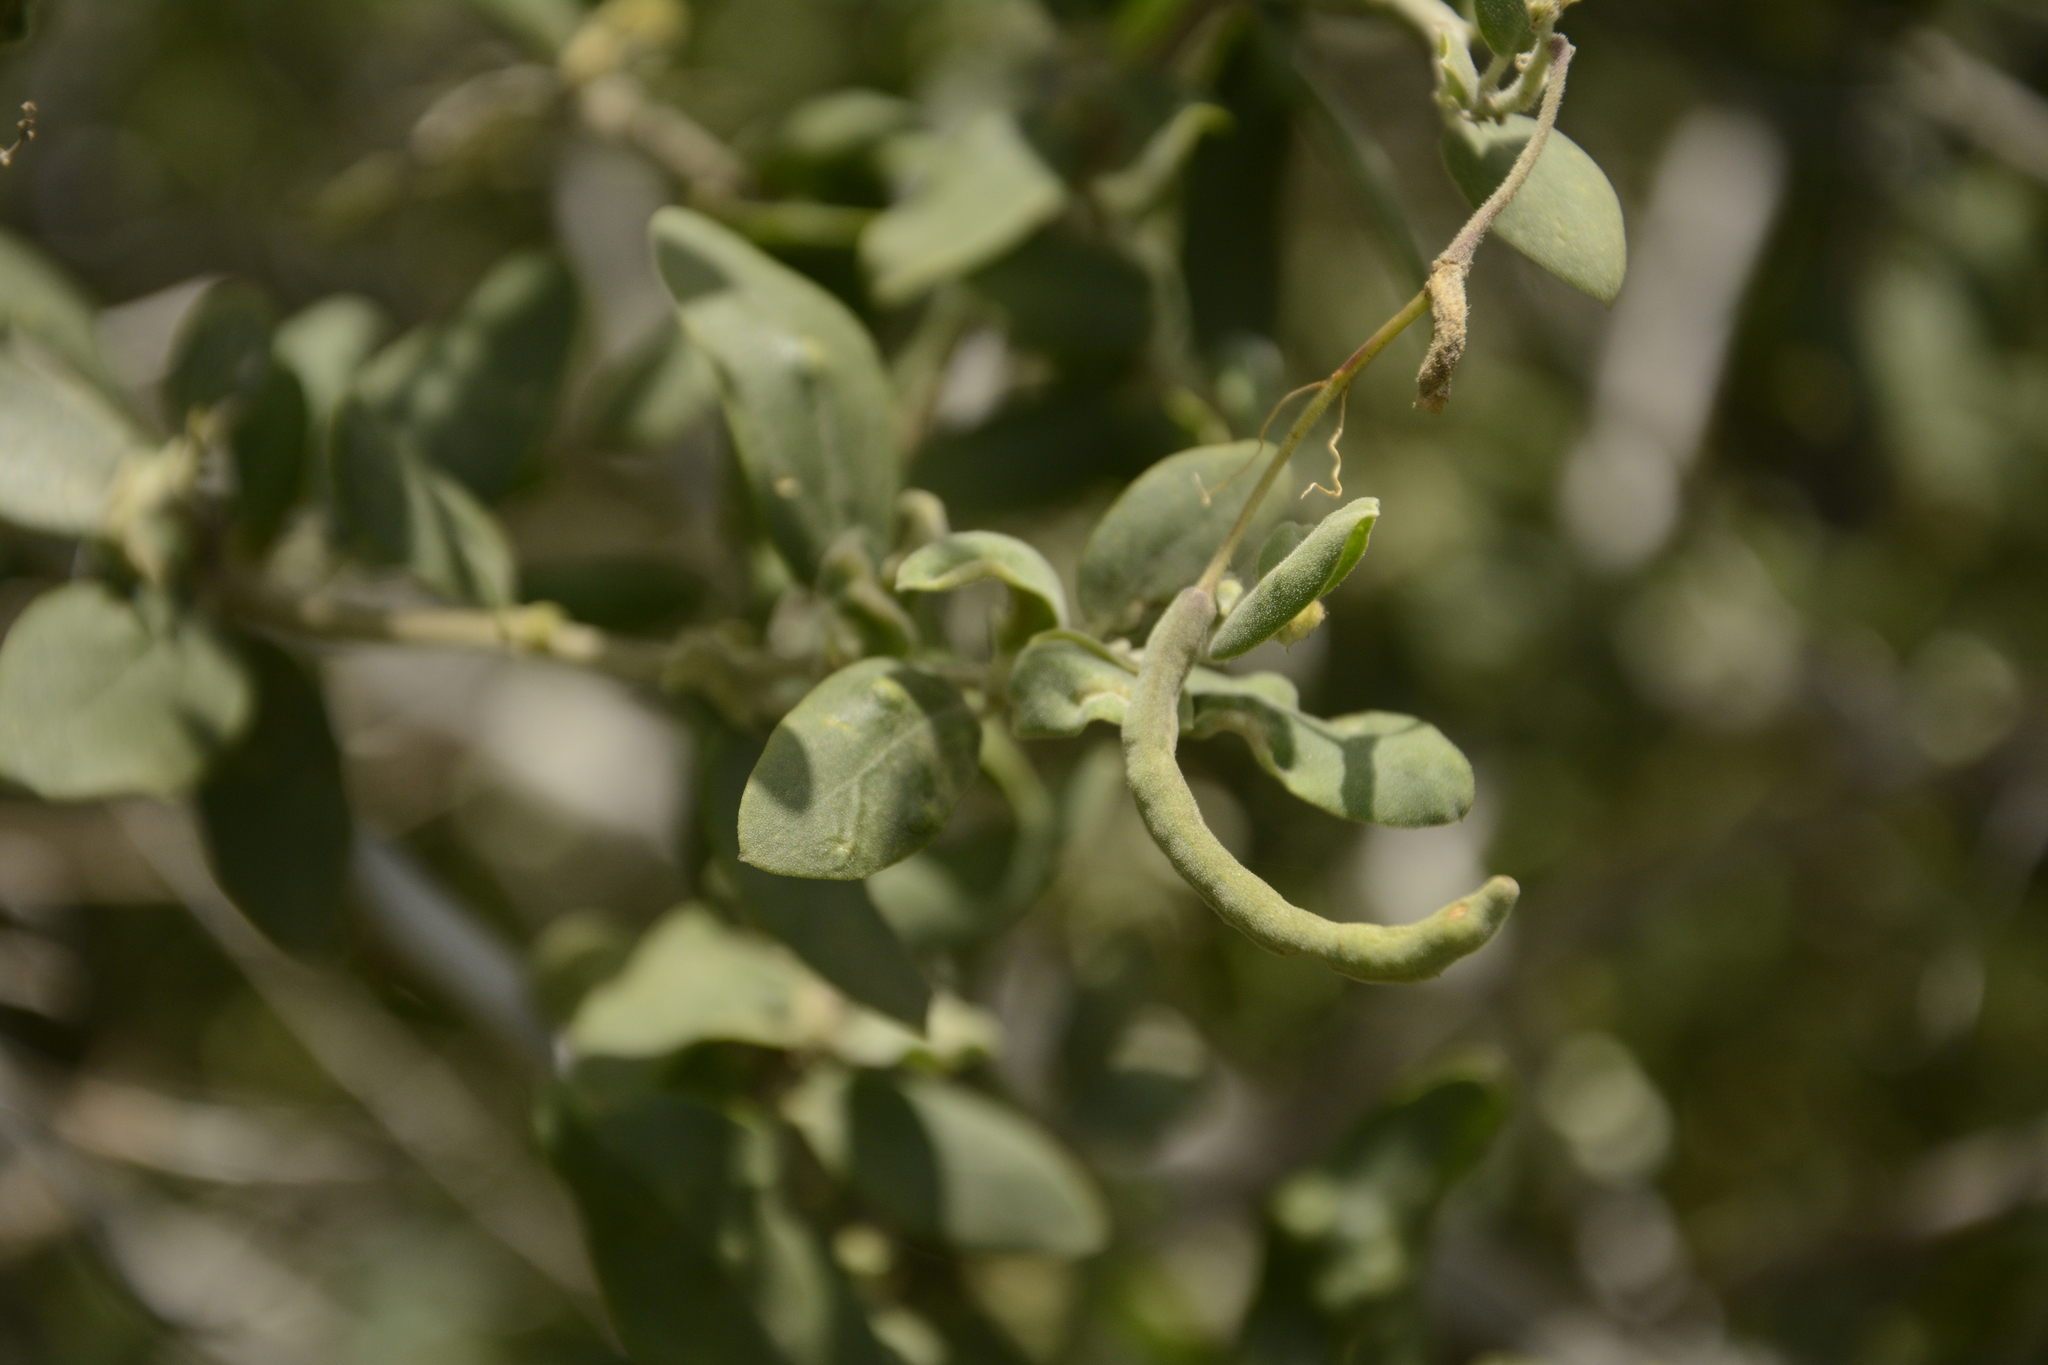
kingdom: Plantae
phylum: Tracheophyta
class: Magnoliopsida
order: Brassicales
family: Capparaceae
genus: Cadaba
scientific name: Cadaba fruticosa
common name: Indian cadaba
